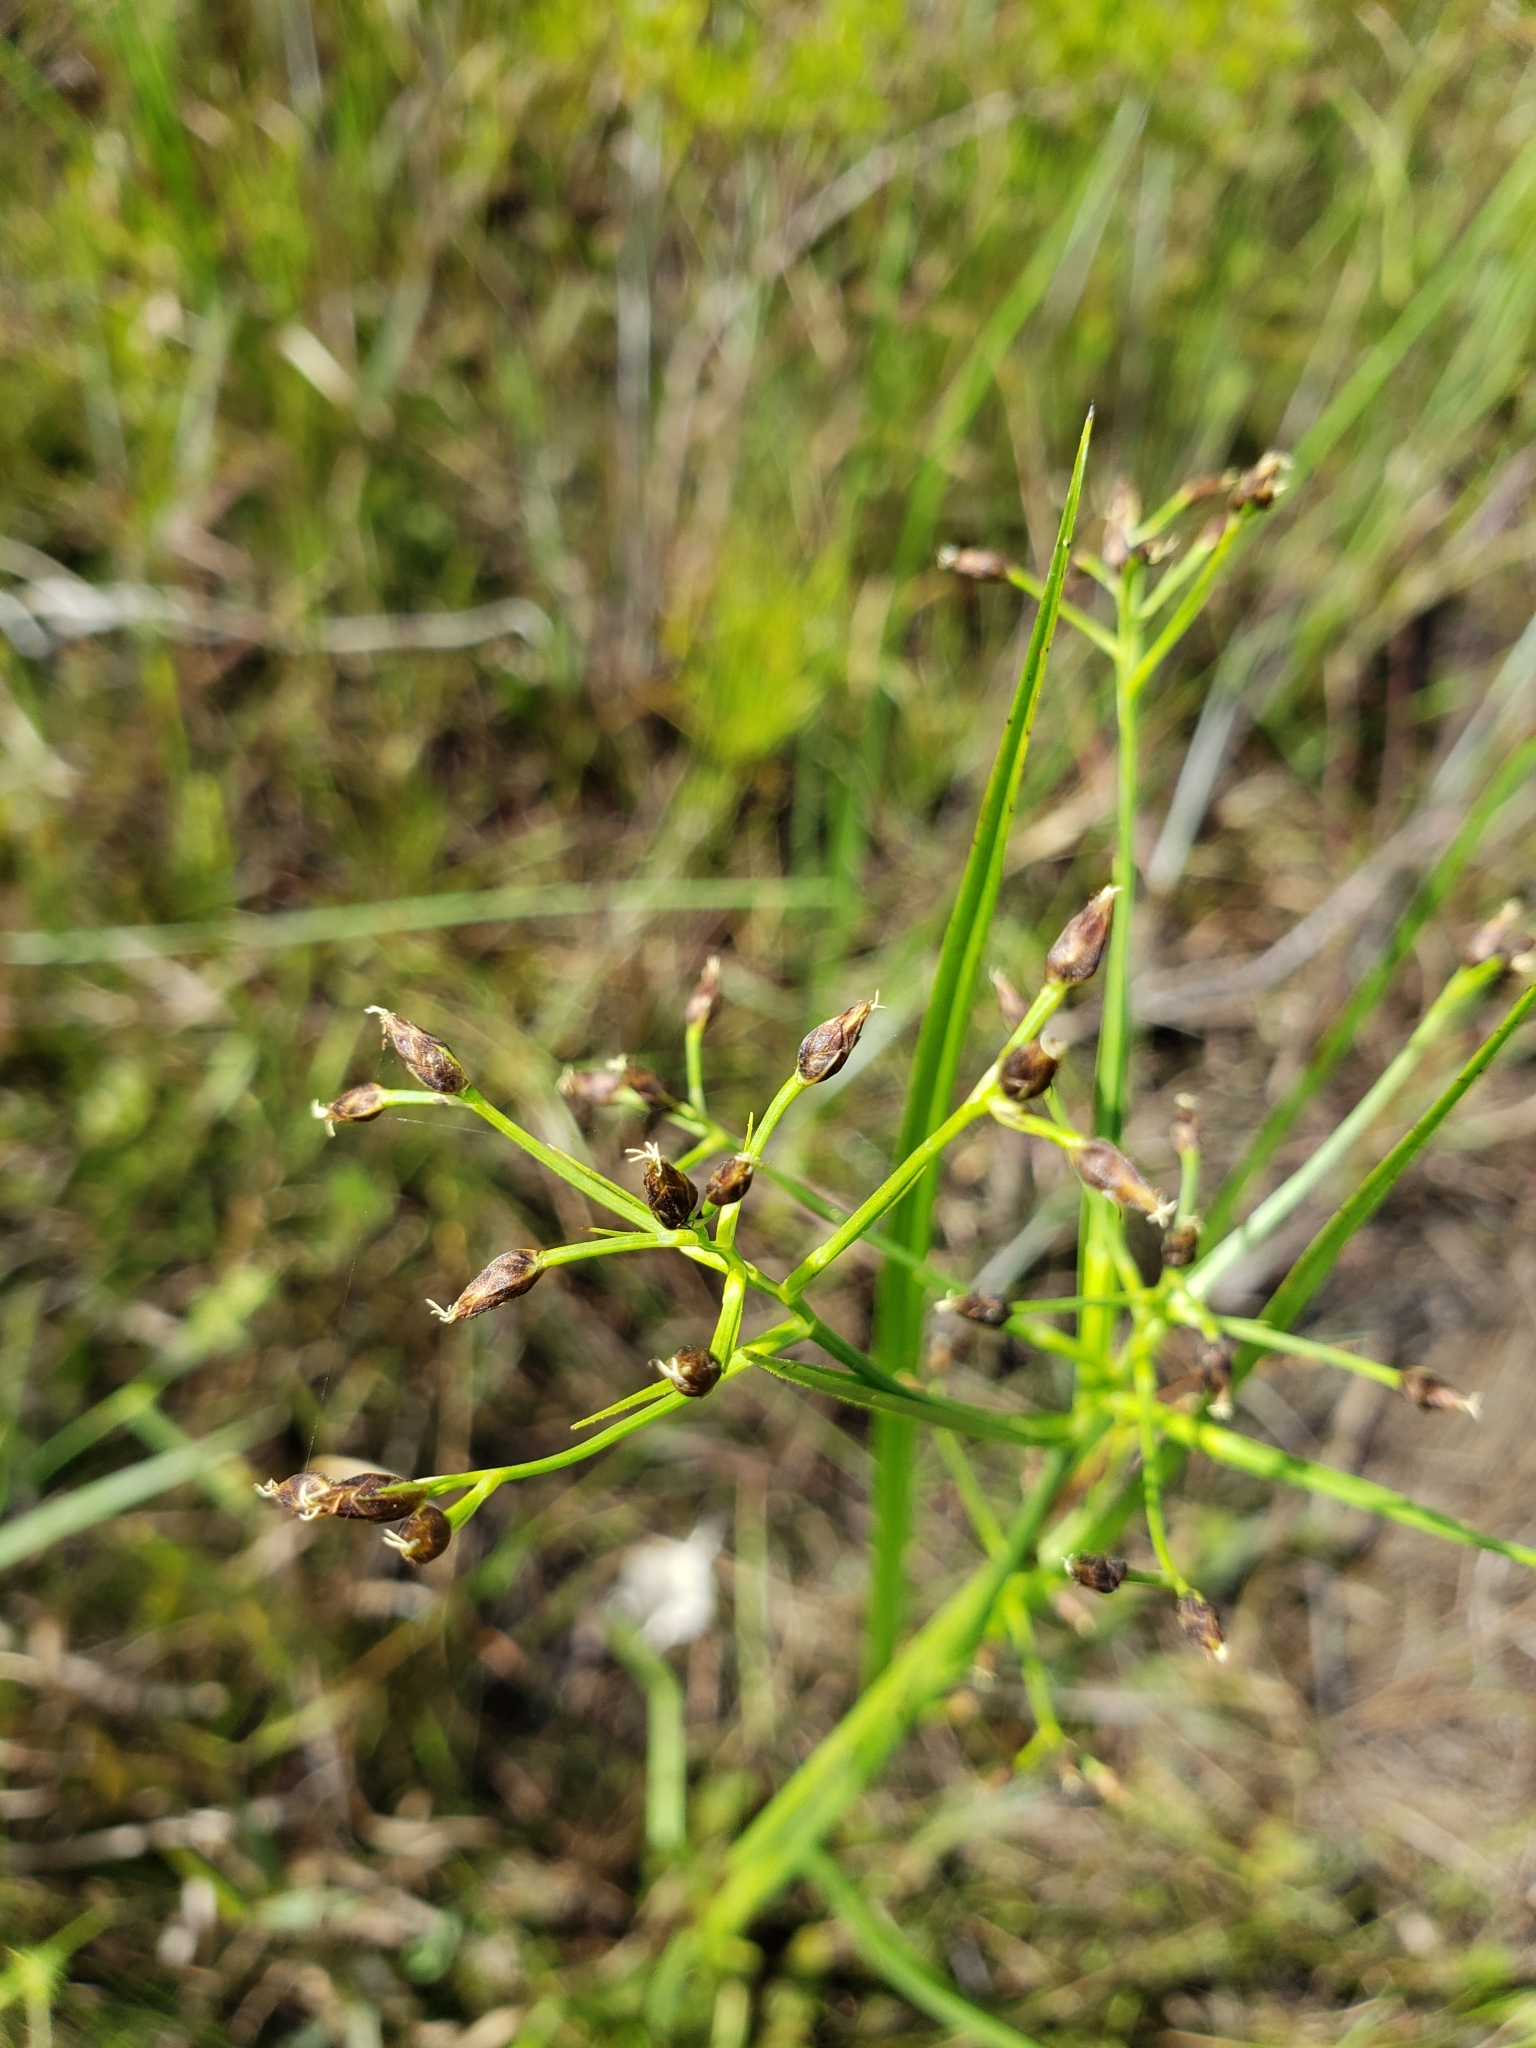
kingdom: Plantae
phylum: Tracheophyta
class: Liliopsida
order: Poales
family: Cyperaceae
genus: Rhynchospora
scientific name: Rhynchospora nitens
